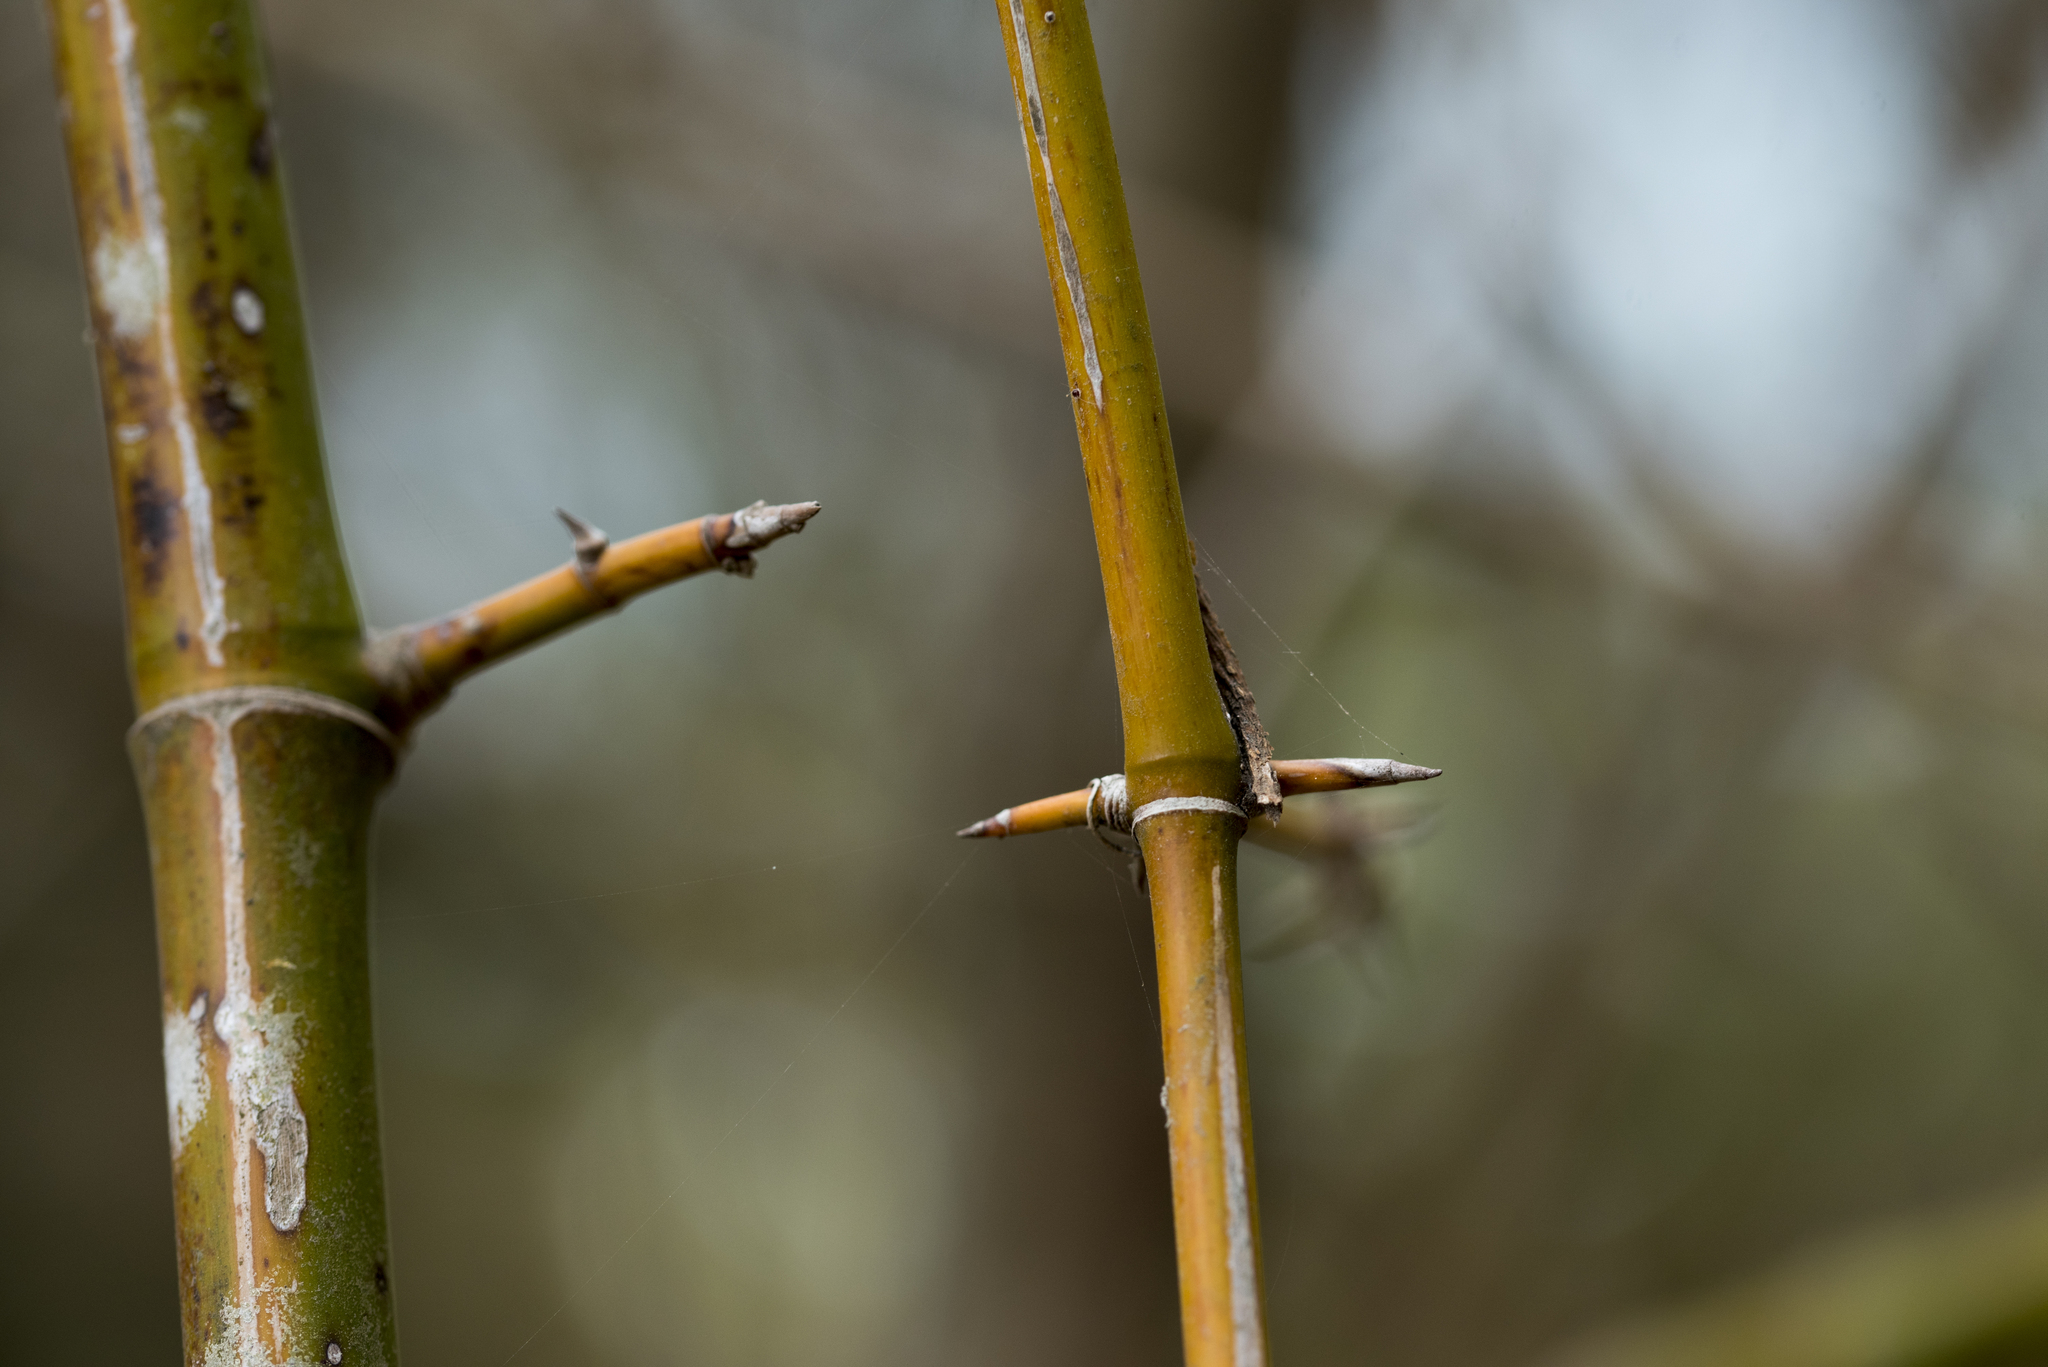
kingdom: Plantae
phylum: Tracheophyta
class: Liliopsida
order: Poales
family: Poaceae
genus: Bambusa
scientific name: Bambusa spinosa
